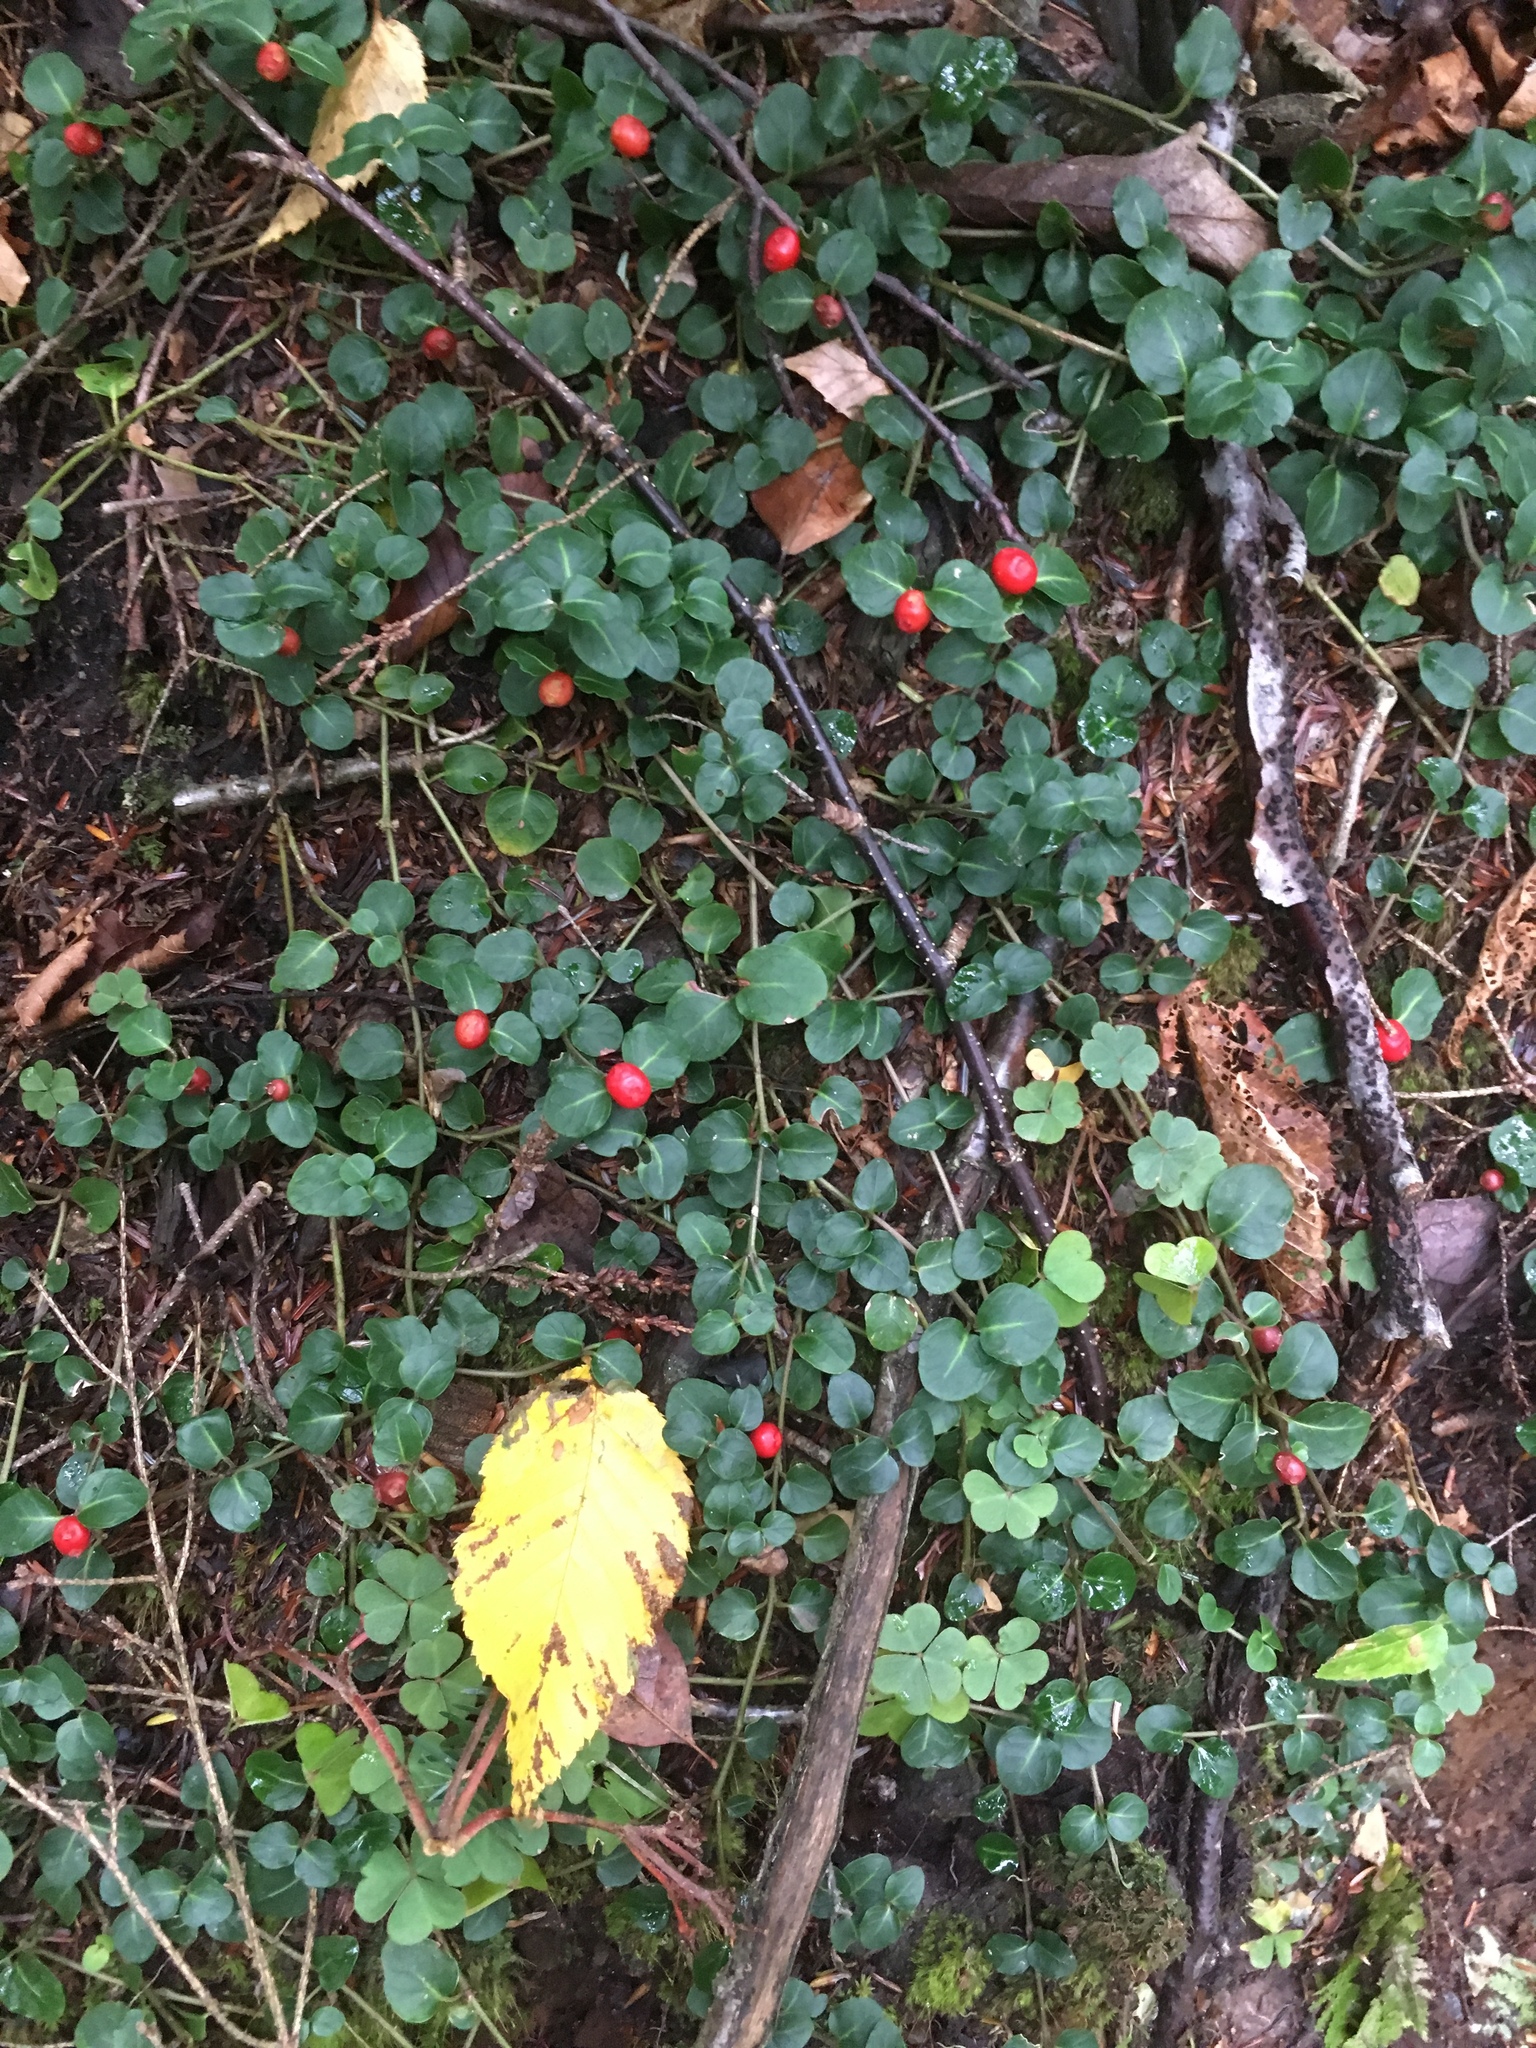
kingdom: Plantae
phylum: Tracheophyta
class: Magnoliopsida
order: Gentianales
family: Rubiaceae
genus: Mitchella
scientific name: Mitchella repens
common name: Partridge-berry
